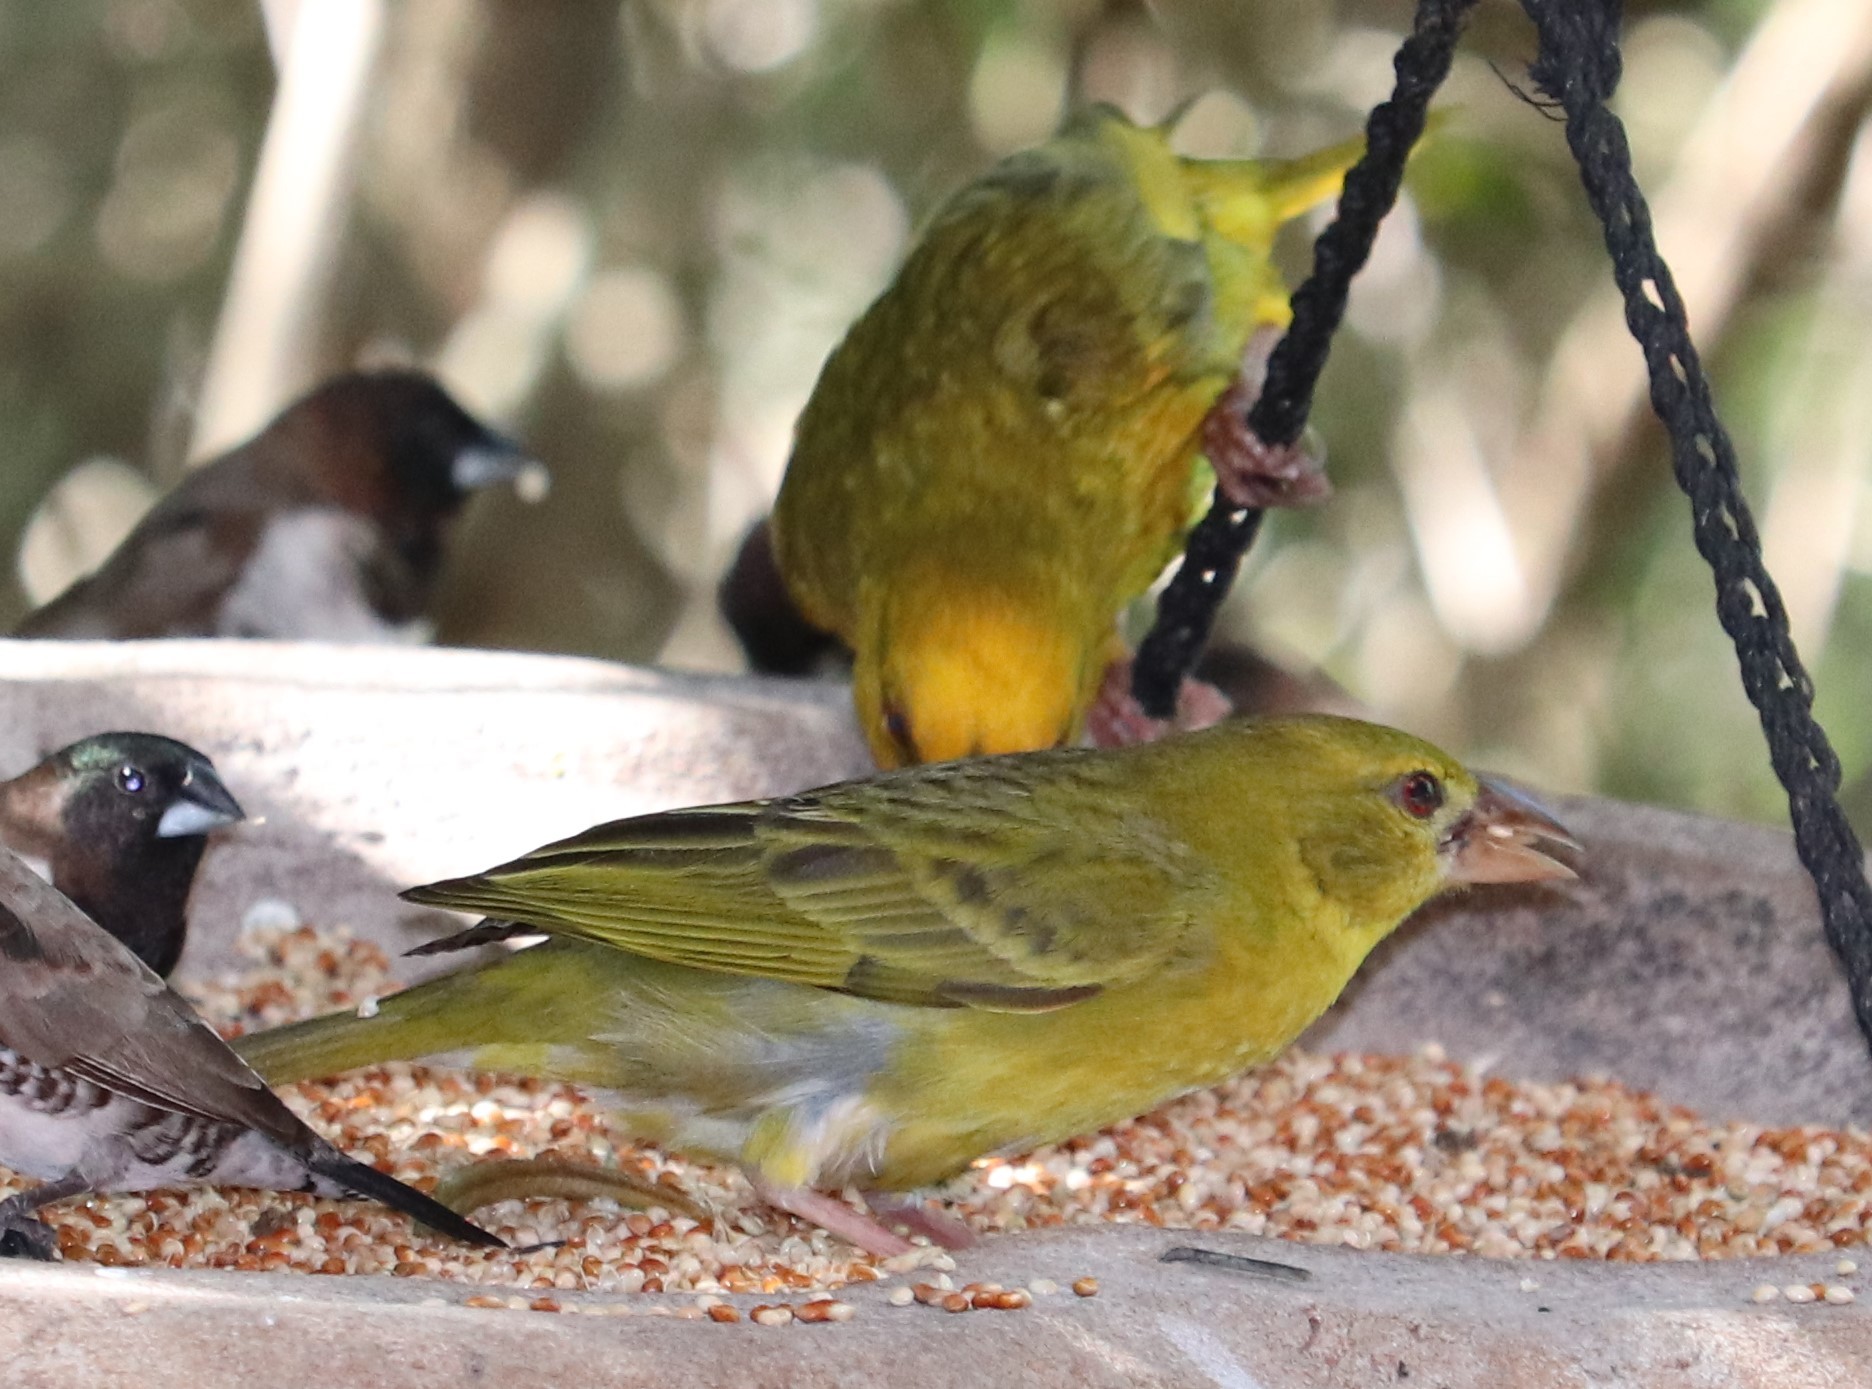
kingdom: Animalia
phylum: Chordata
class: Aves
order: Passeriformes
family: Ploceidae
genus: Ploceus
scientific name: Ploceus subaureus
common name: Yellow weaver
